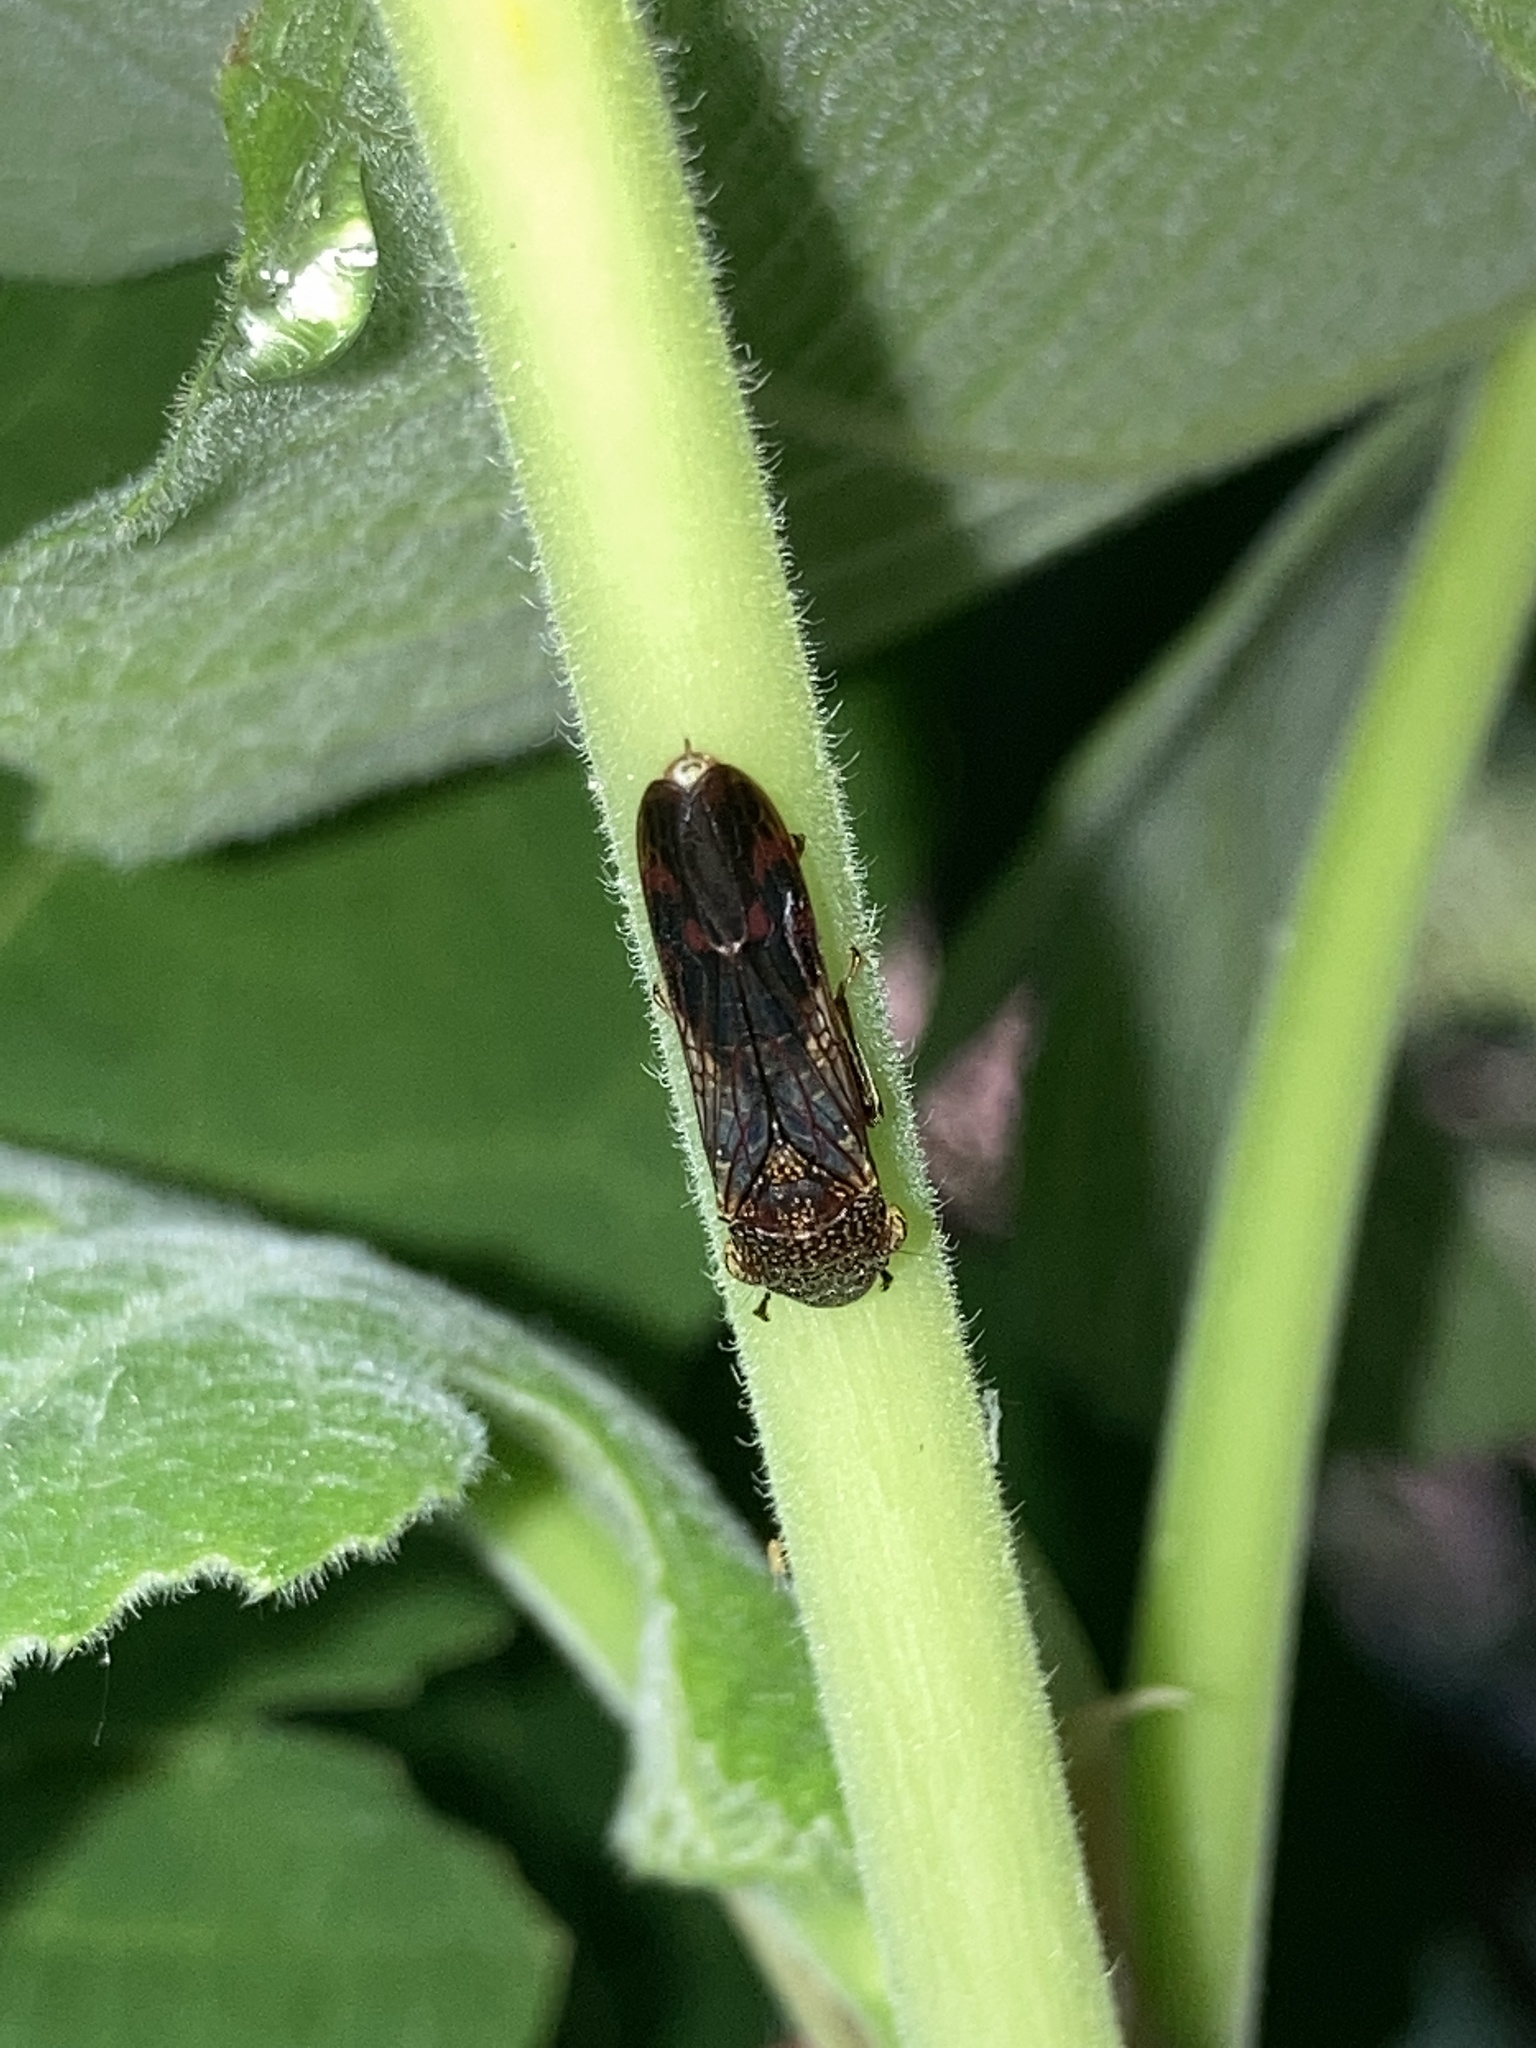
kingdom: Animalia
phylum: Arthropoda
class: Insecta
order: Hemiptera
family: Cicadellidae
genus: Homalodisca
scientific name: Homalodisca vitripennis
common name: Glassy-winged sharpshooter
